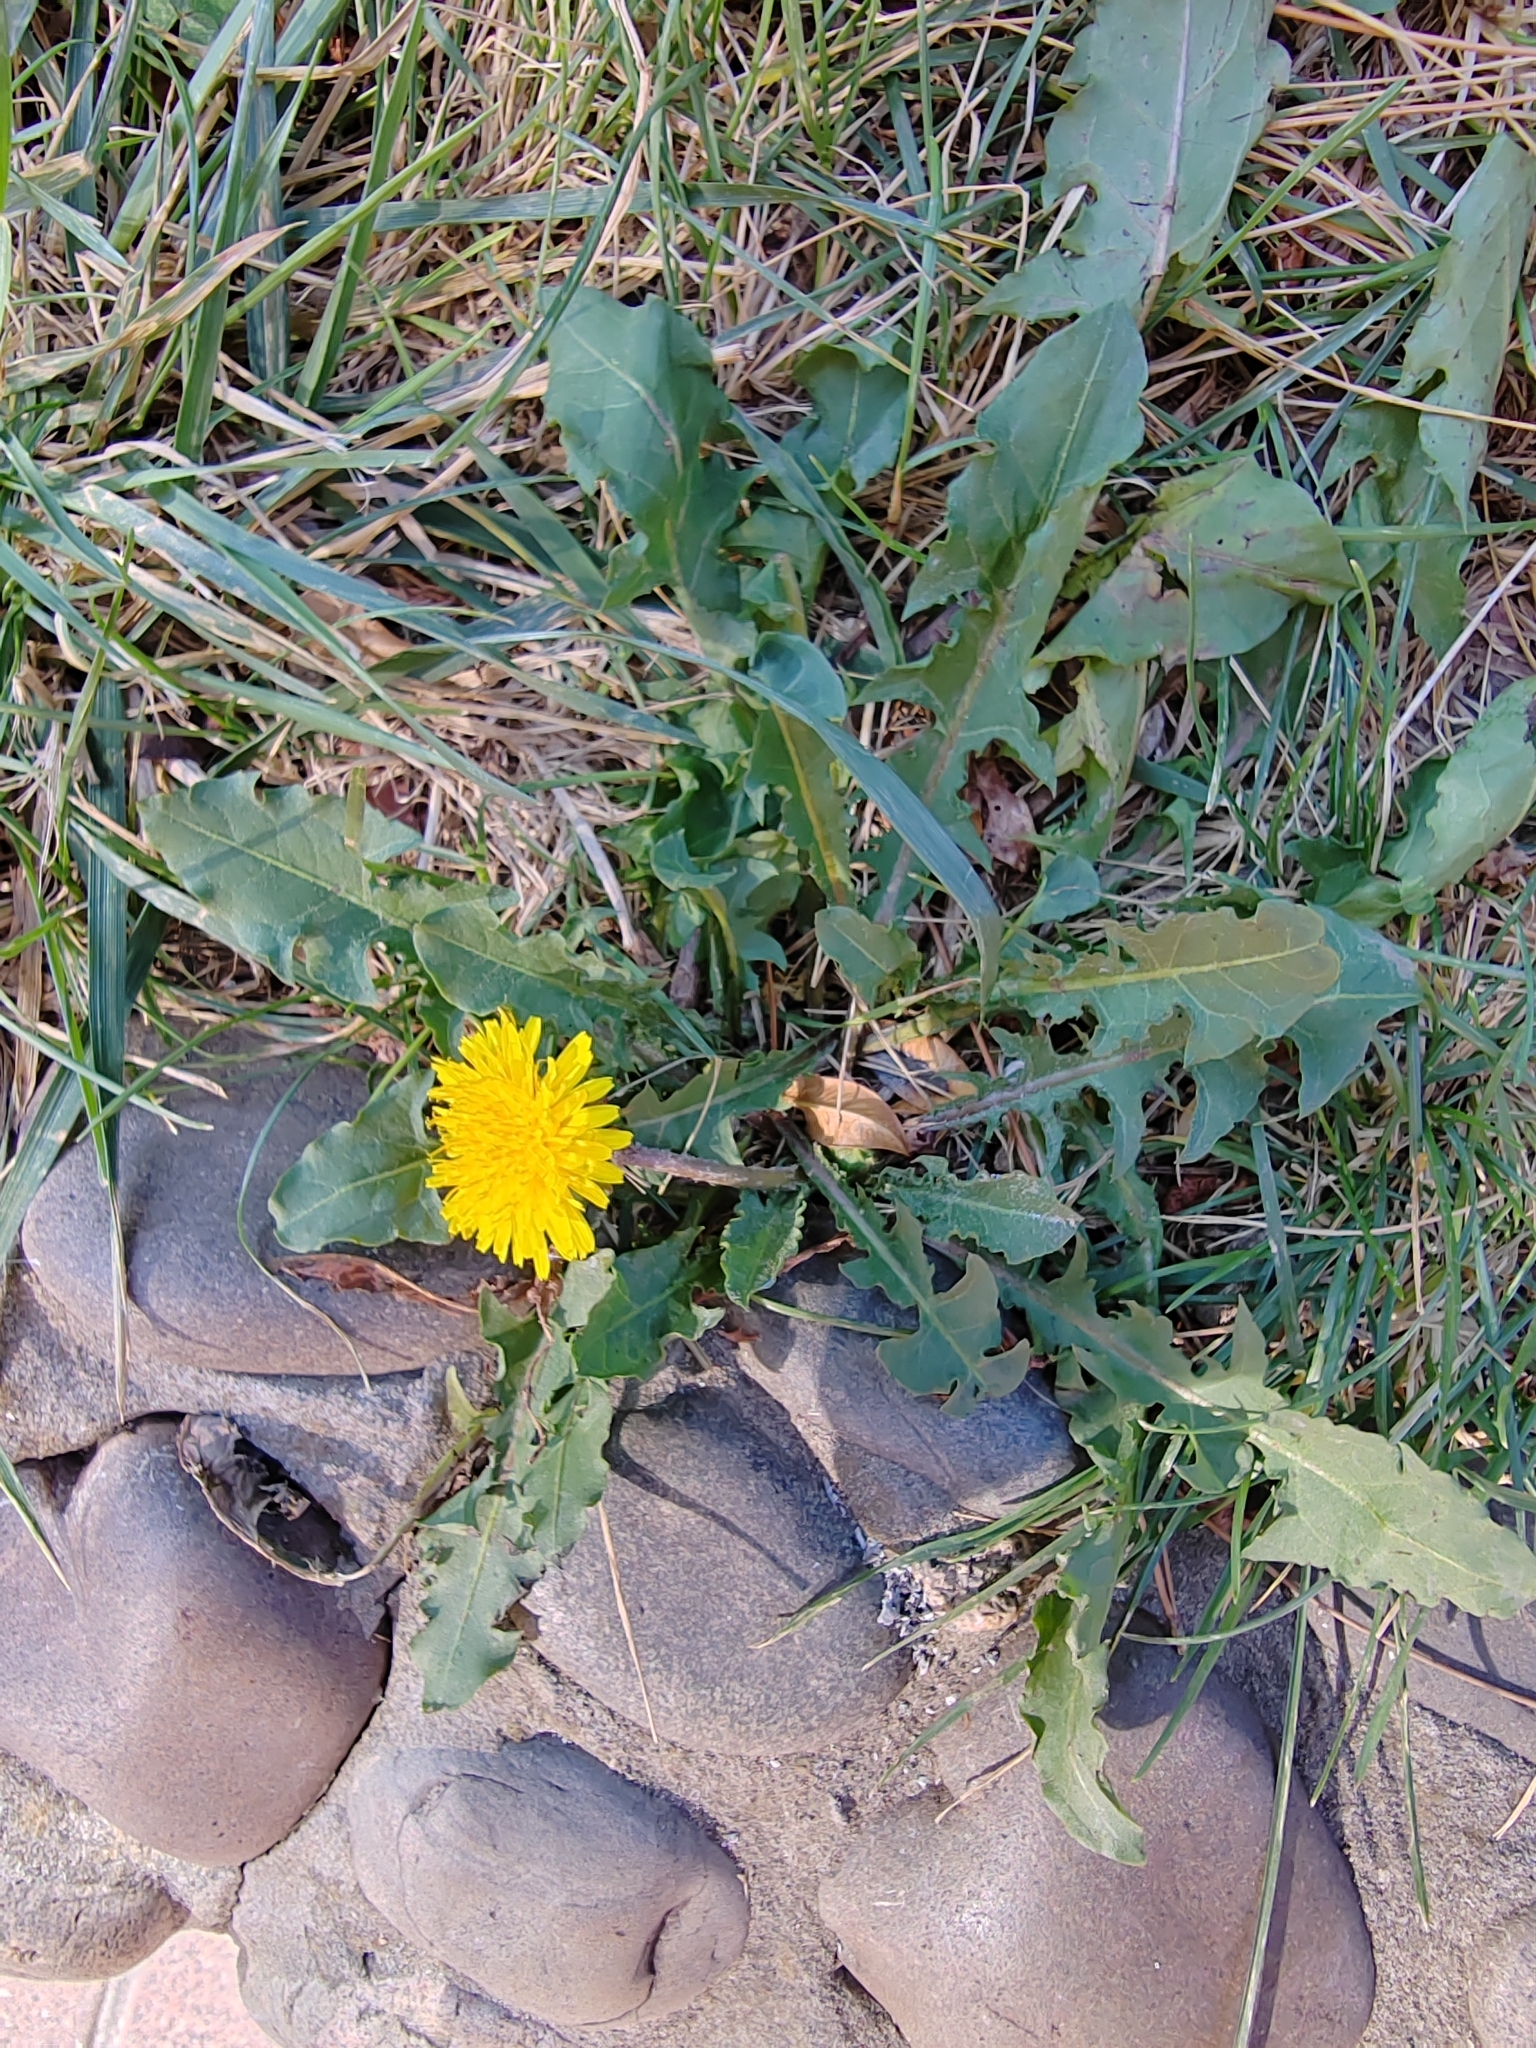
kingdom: Plantae
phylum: Tracheophyta
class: Magnoliopsida
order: Asterales
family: Asteraceae
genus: Taraxacum
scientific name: Taraxacum officinale
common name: Common dandelion
